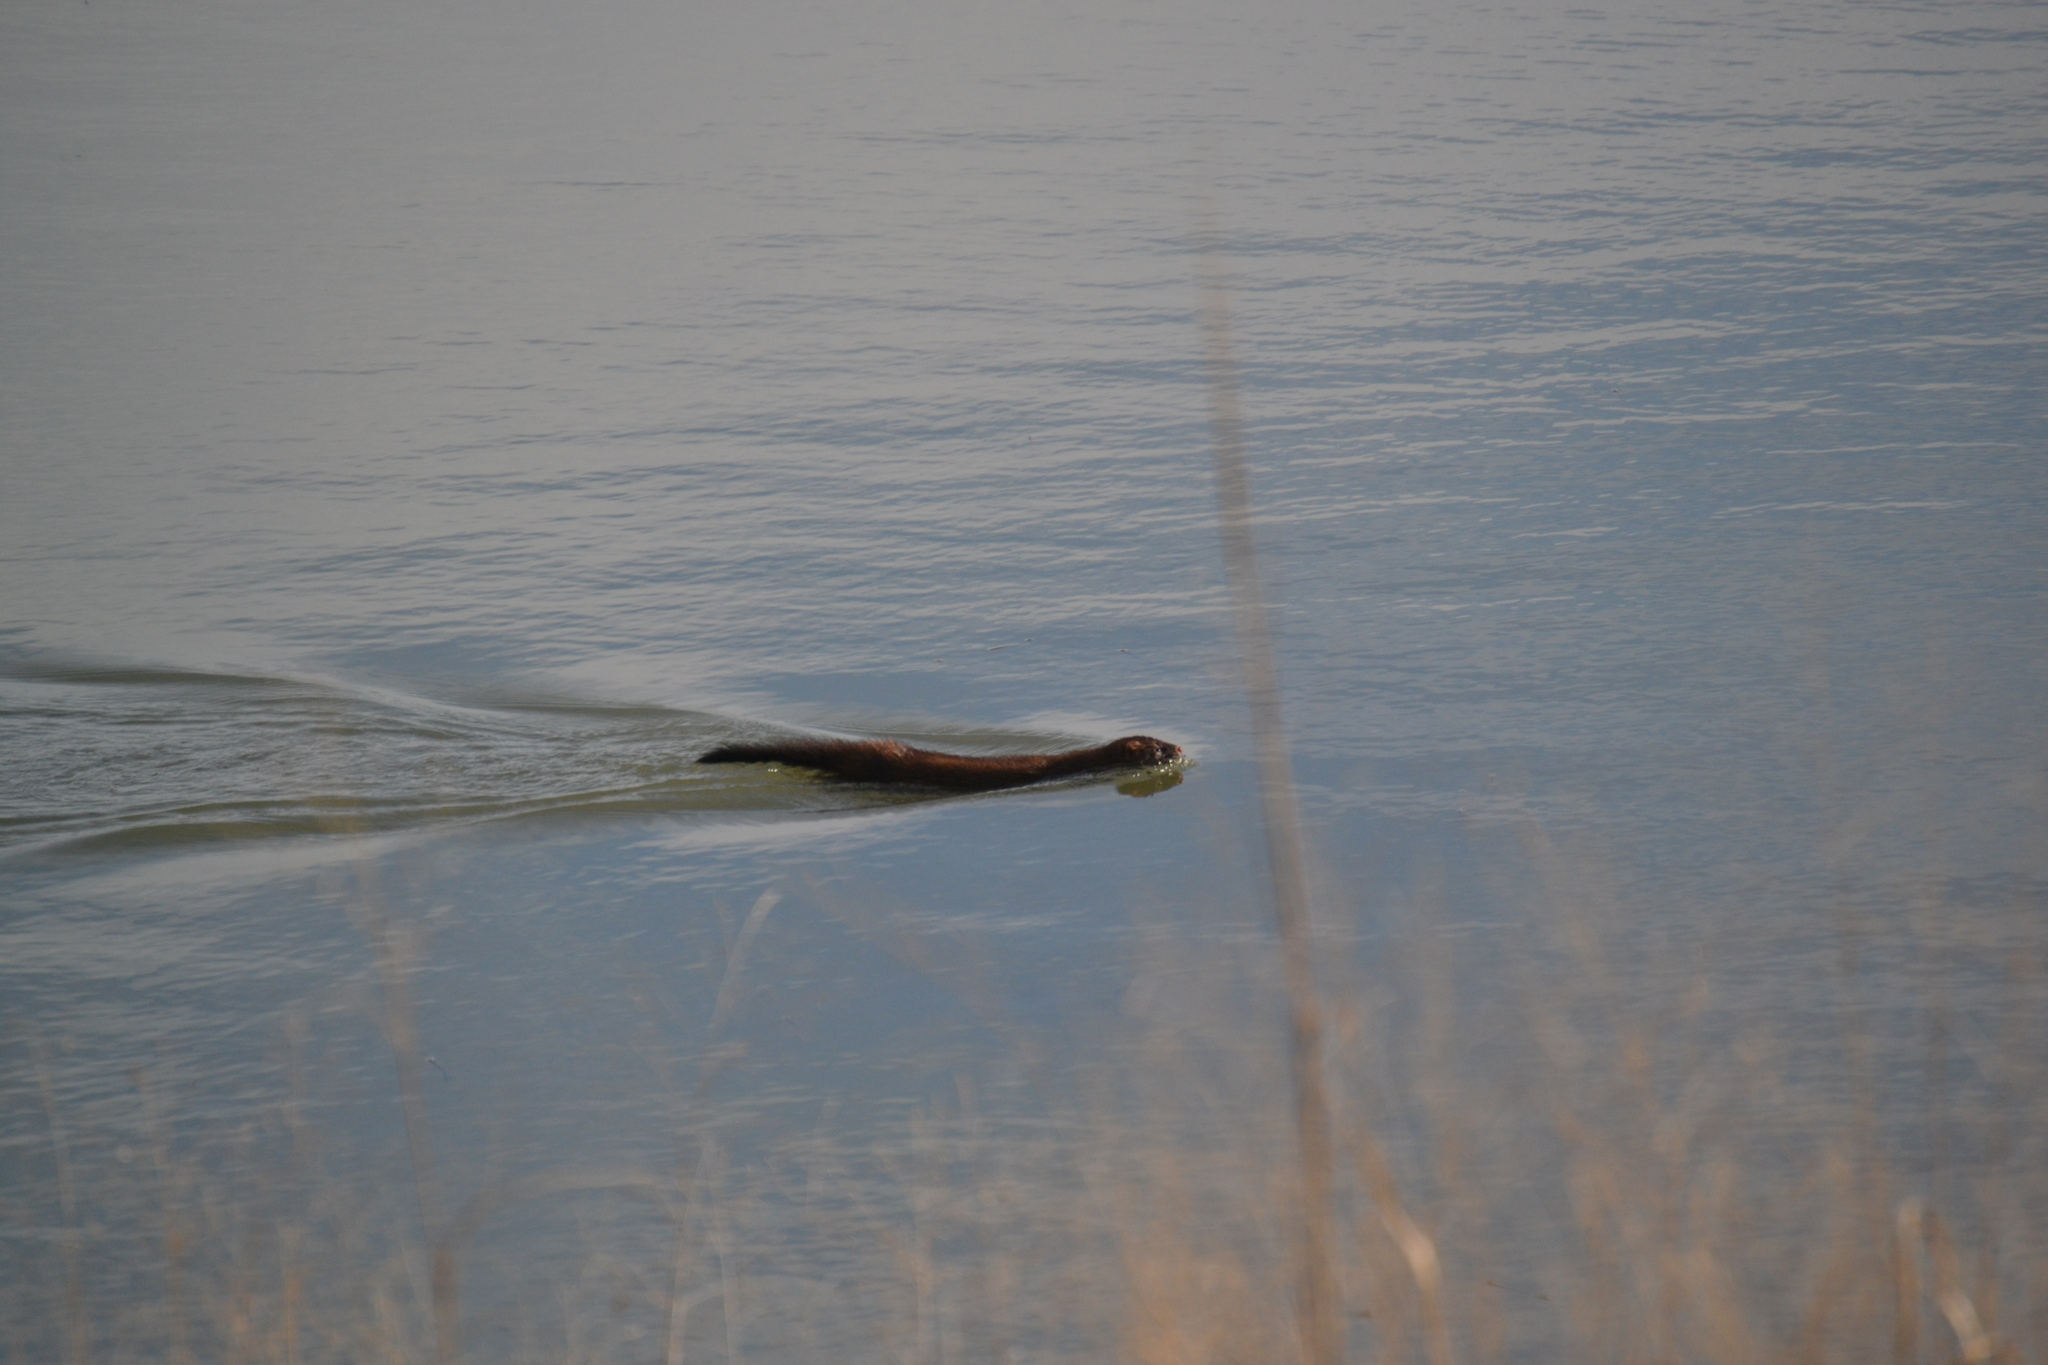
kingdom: Animalia
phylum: Chordata
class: Mammalia
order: Carnivora
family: Mustelidae
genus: Mustela
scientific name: Mustela
